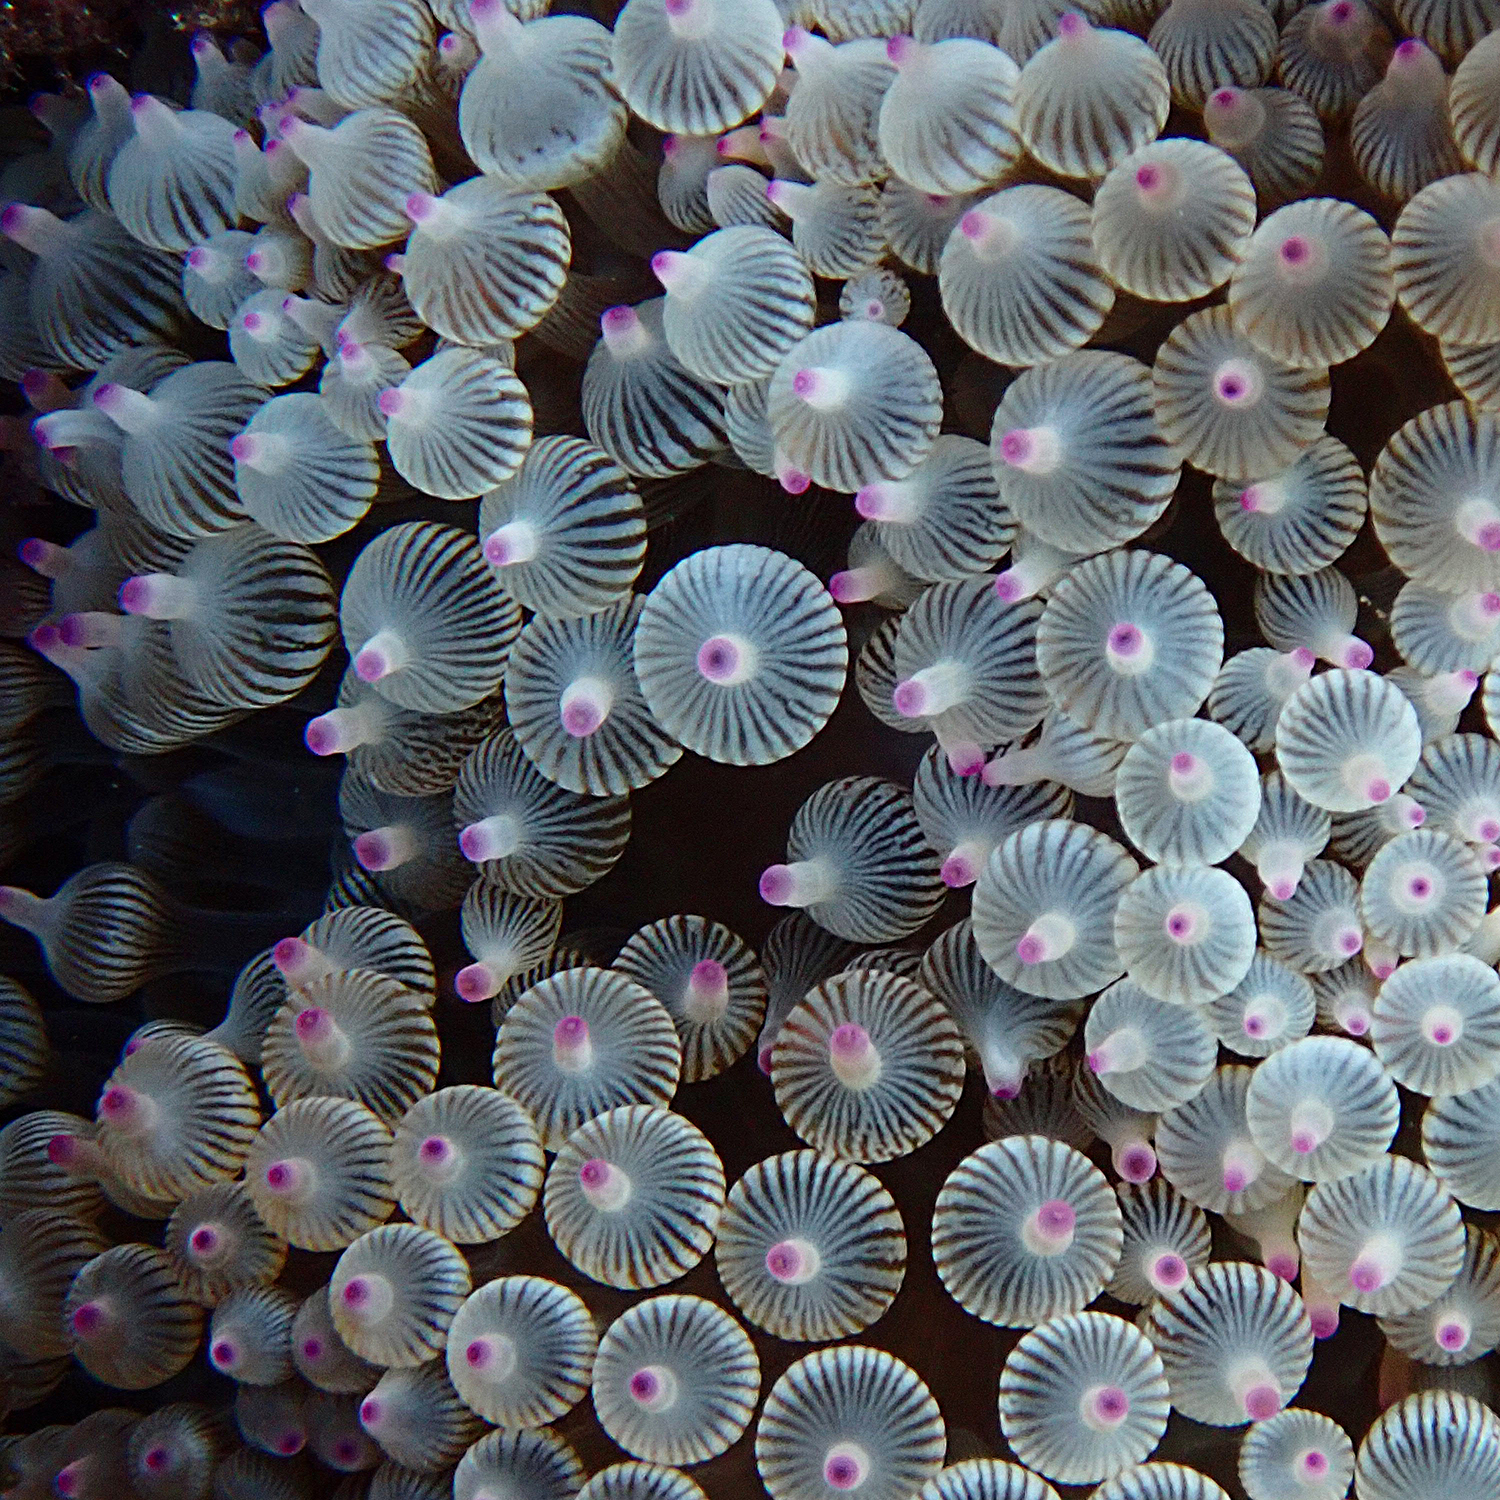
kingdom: Animalia
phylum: Cnidaria
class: Anthozoa
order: Actiniaria
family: Actiniidae
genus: Entacmaea
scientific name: Entacmaea quadricolor
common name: Bulb tentacle sea anemone
